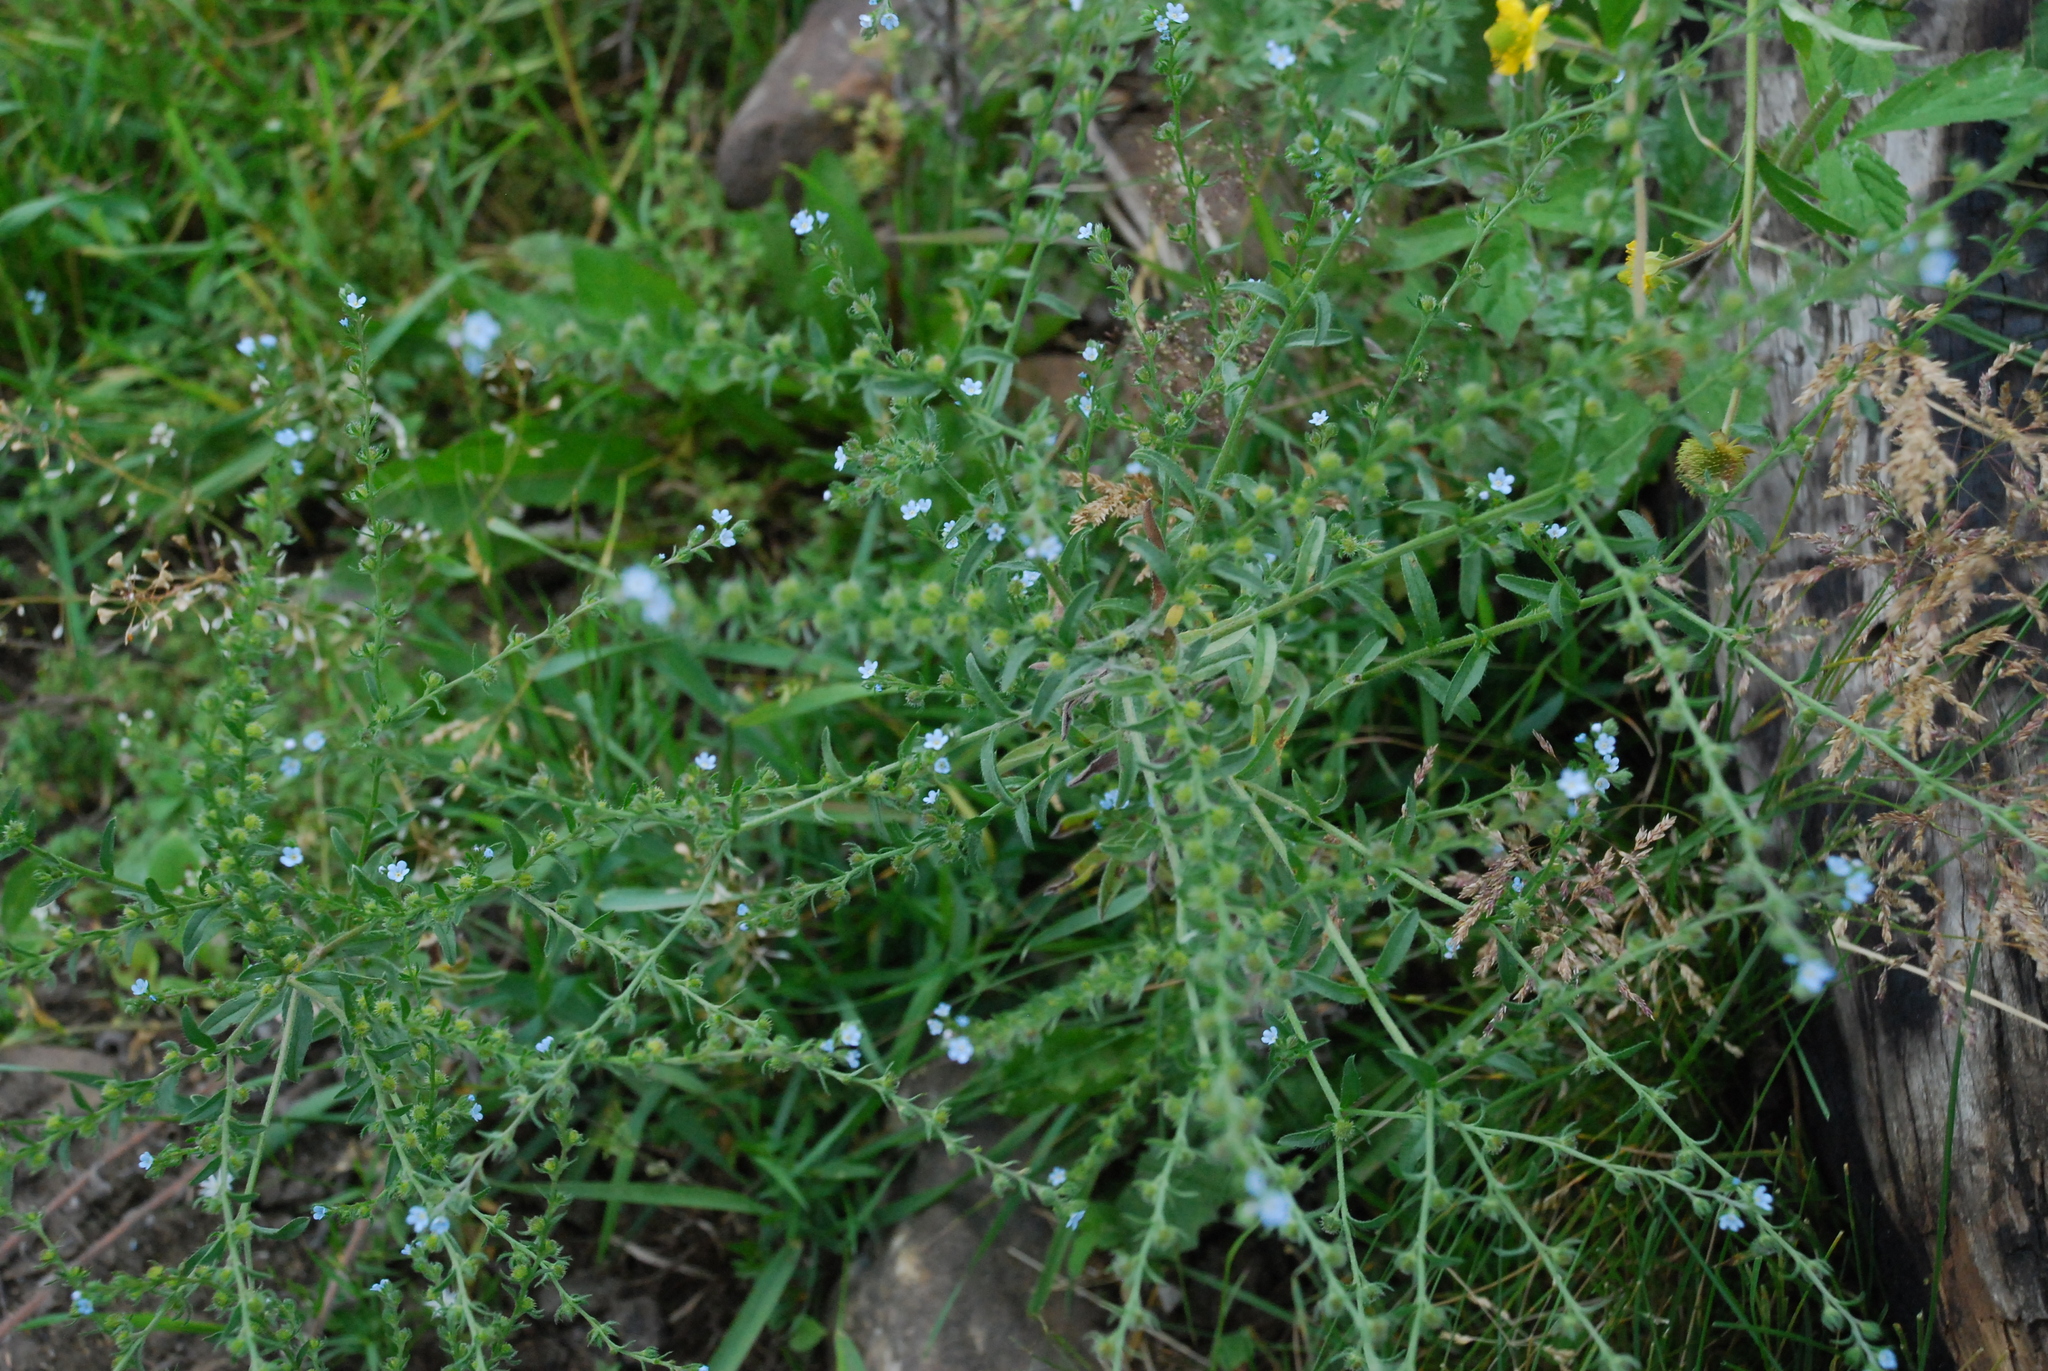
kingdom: Plantae
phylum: Tracheophyta
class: Magnoliopsida
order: Boraginales
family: Boraginaceae
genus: Lappula
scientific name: Lappula squarrosa
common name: European stickseed
